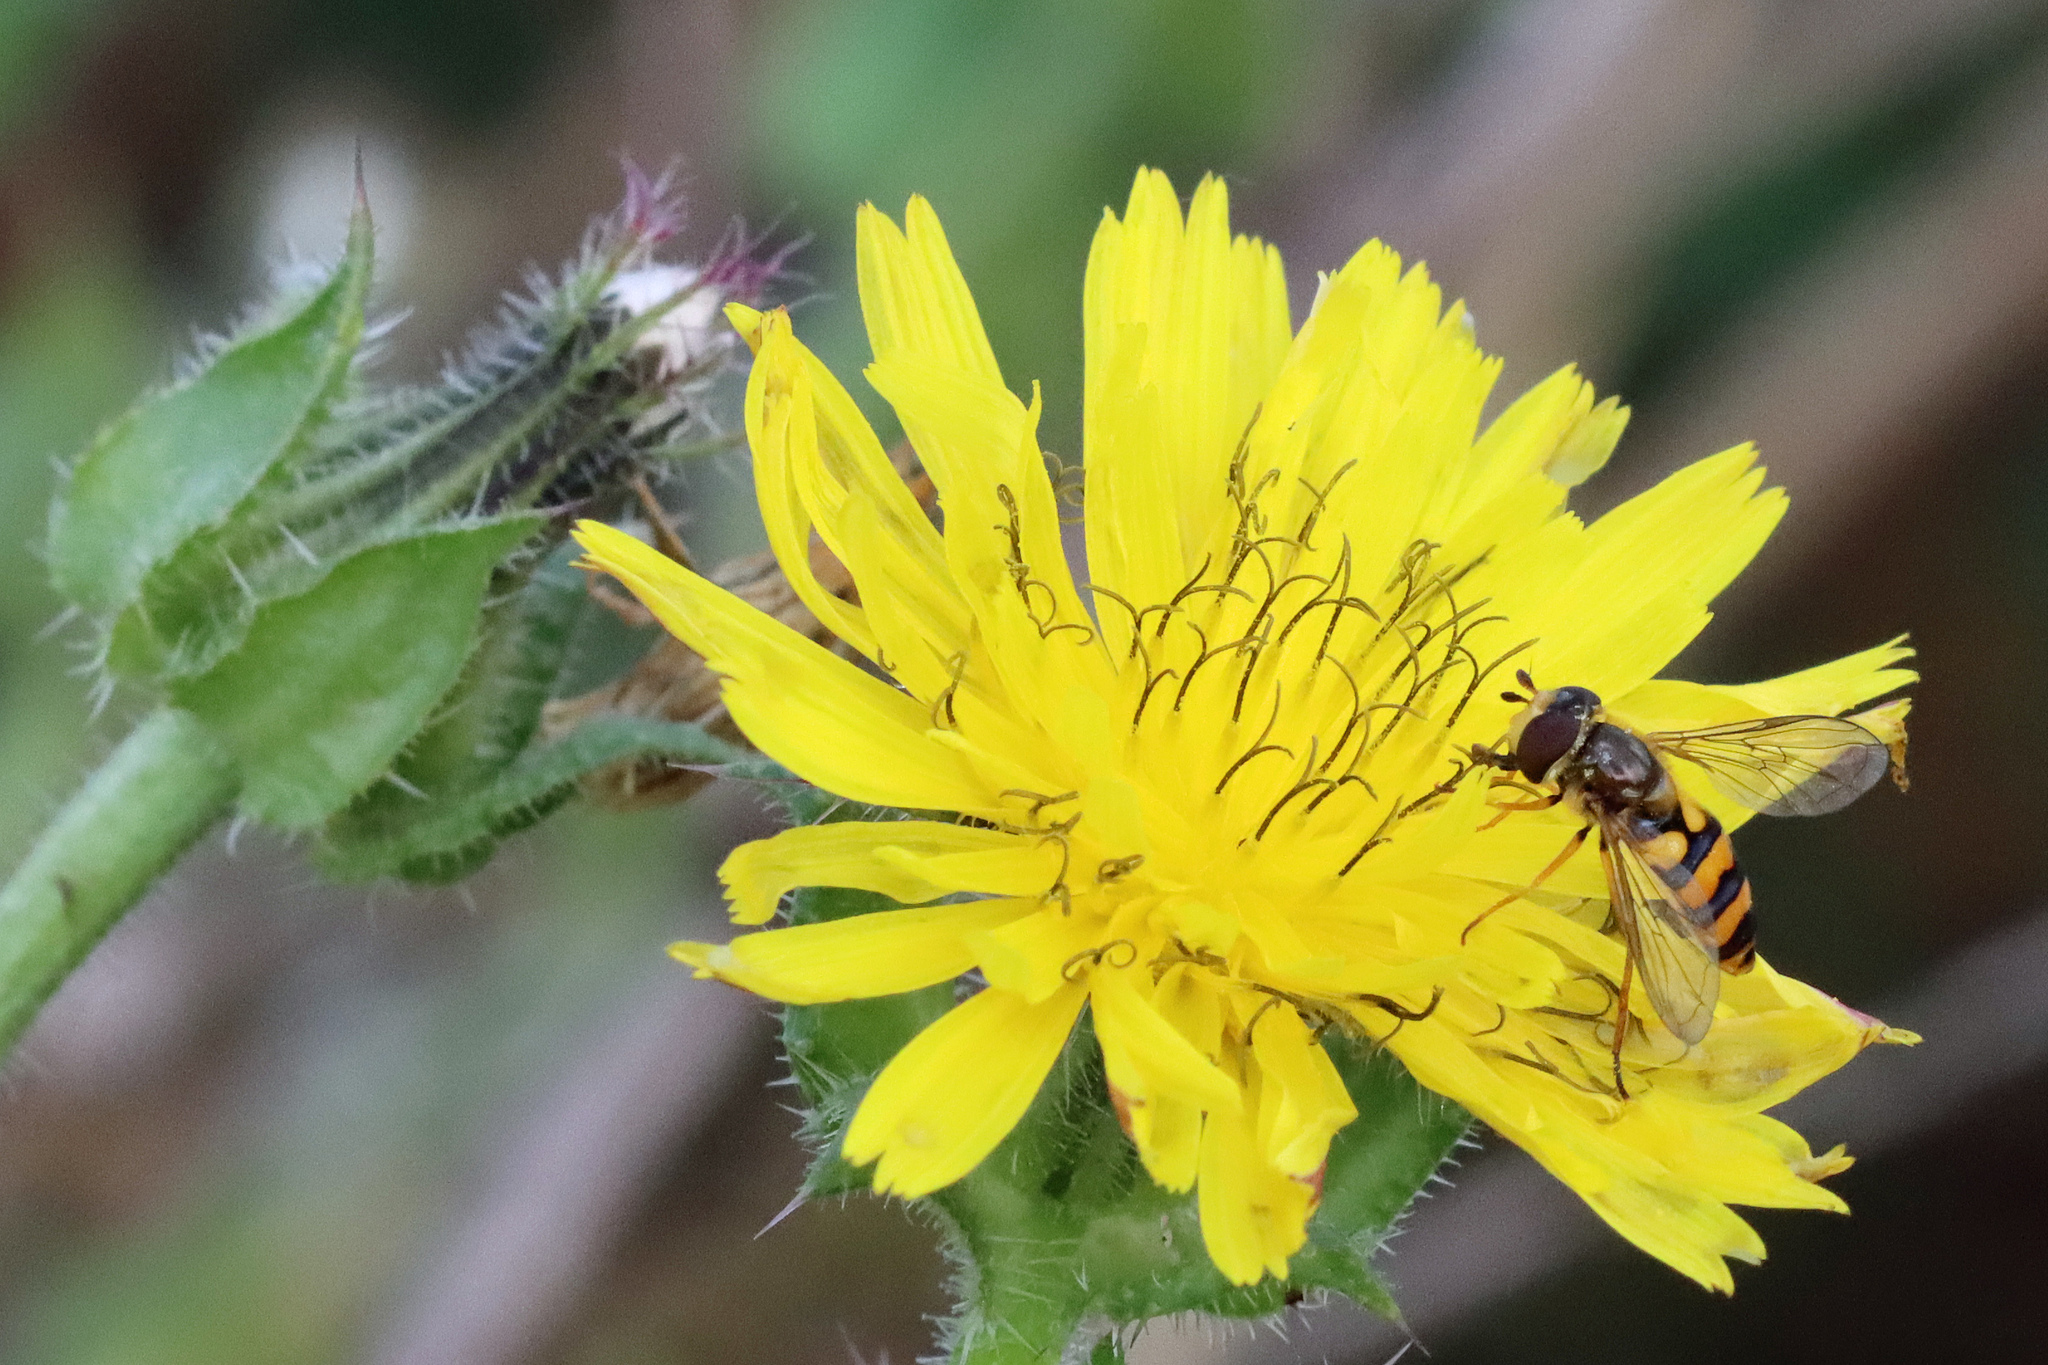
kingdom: Animalia
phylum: Arthropoda
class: Insecta
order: Diptera
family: Syrphidae
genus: Eupeodes
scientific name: Eupeodes latifasciatus
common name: Variable aphideater
